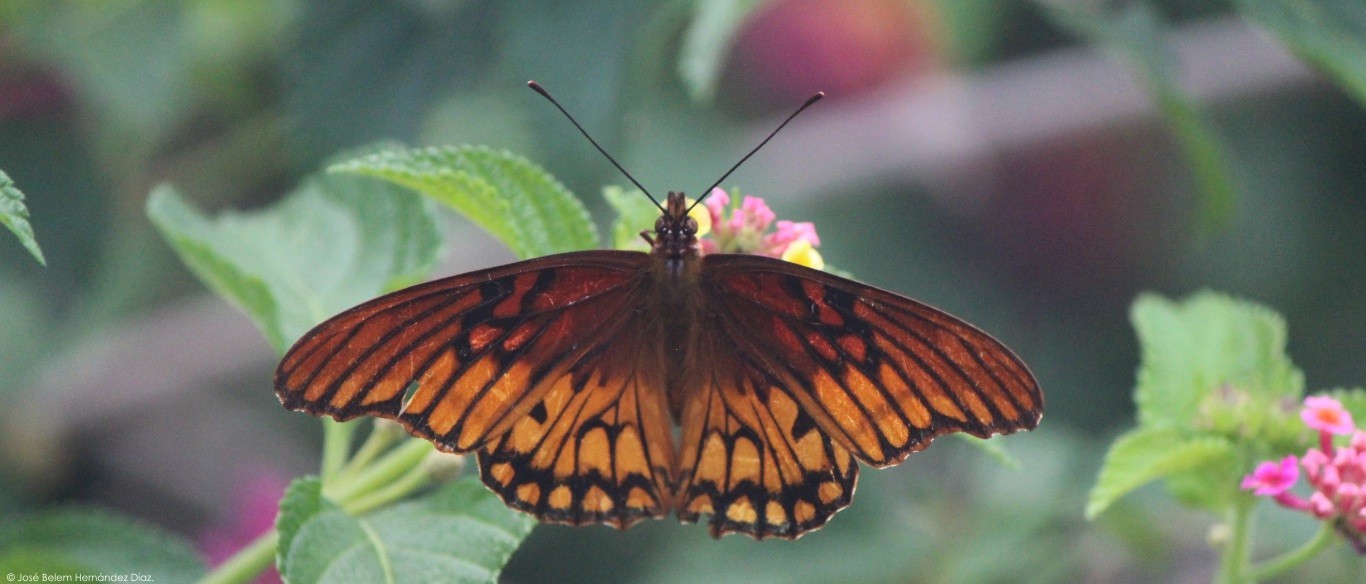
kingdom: Animalia
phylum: Arthropoda
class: Insecta
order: Lepidoptera
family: Nymphalidae
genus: Dione
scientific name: Dione moneta
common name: Mexican silverspot
